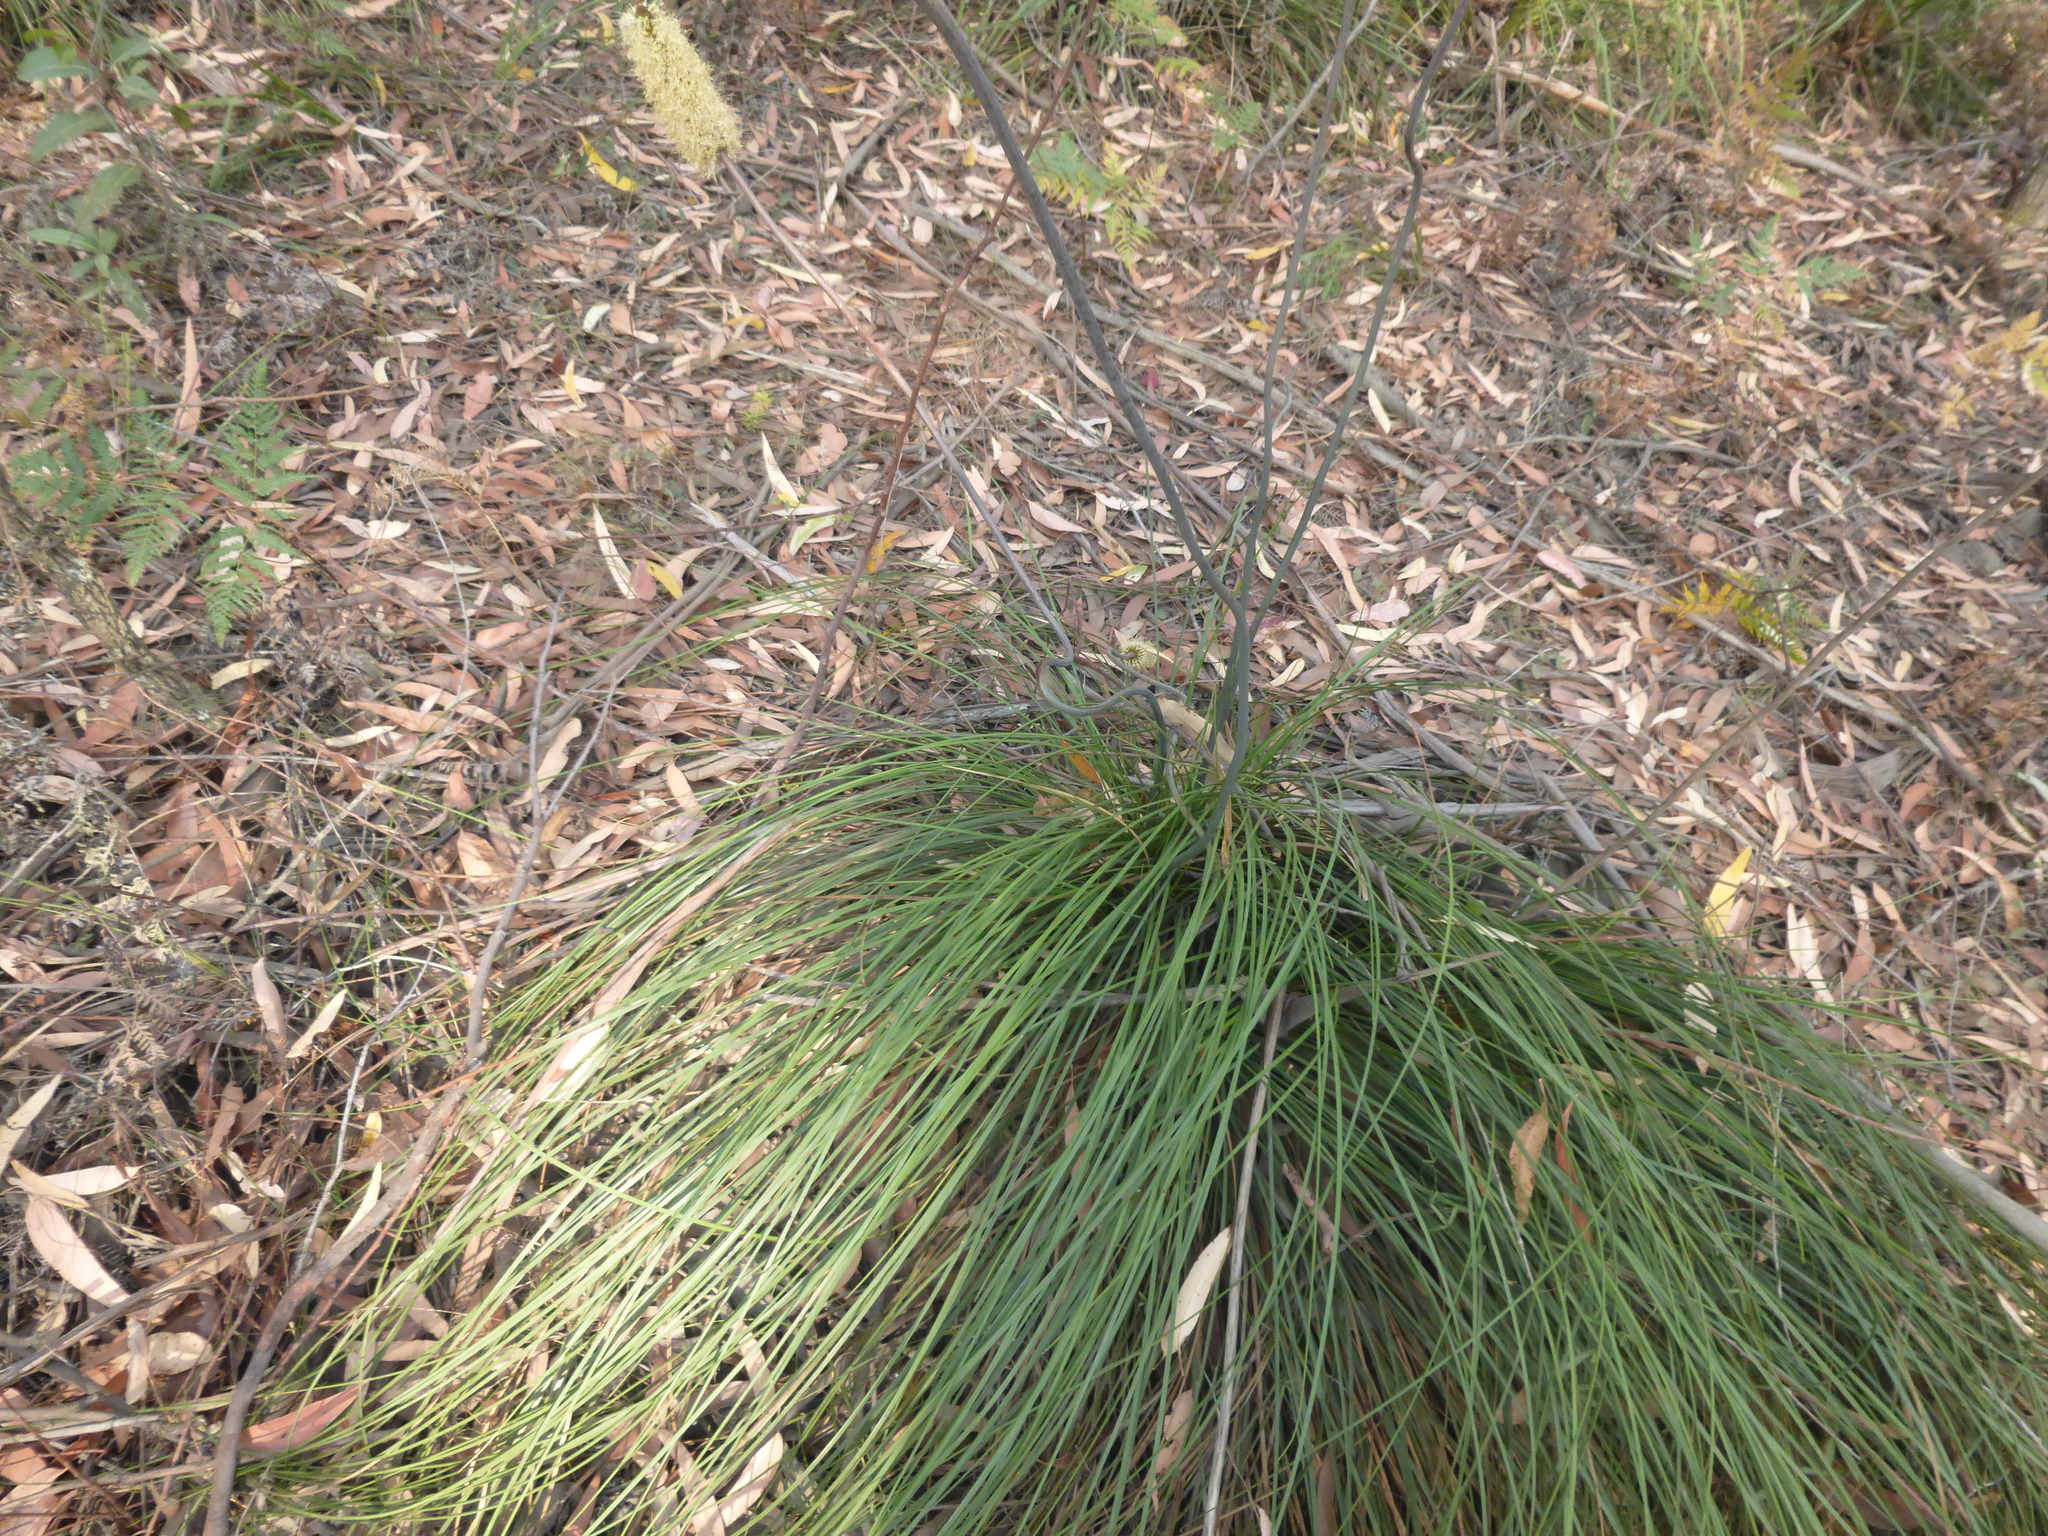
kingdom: Plantae
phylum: Tracheophyta
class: Liliopsida
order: Asparagales
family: Asphodelaceae
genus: Xanthorrhoea
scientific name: Xanthorrhoea macronema
